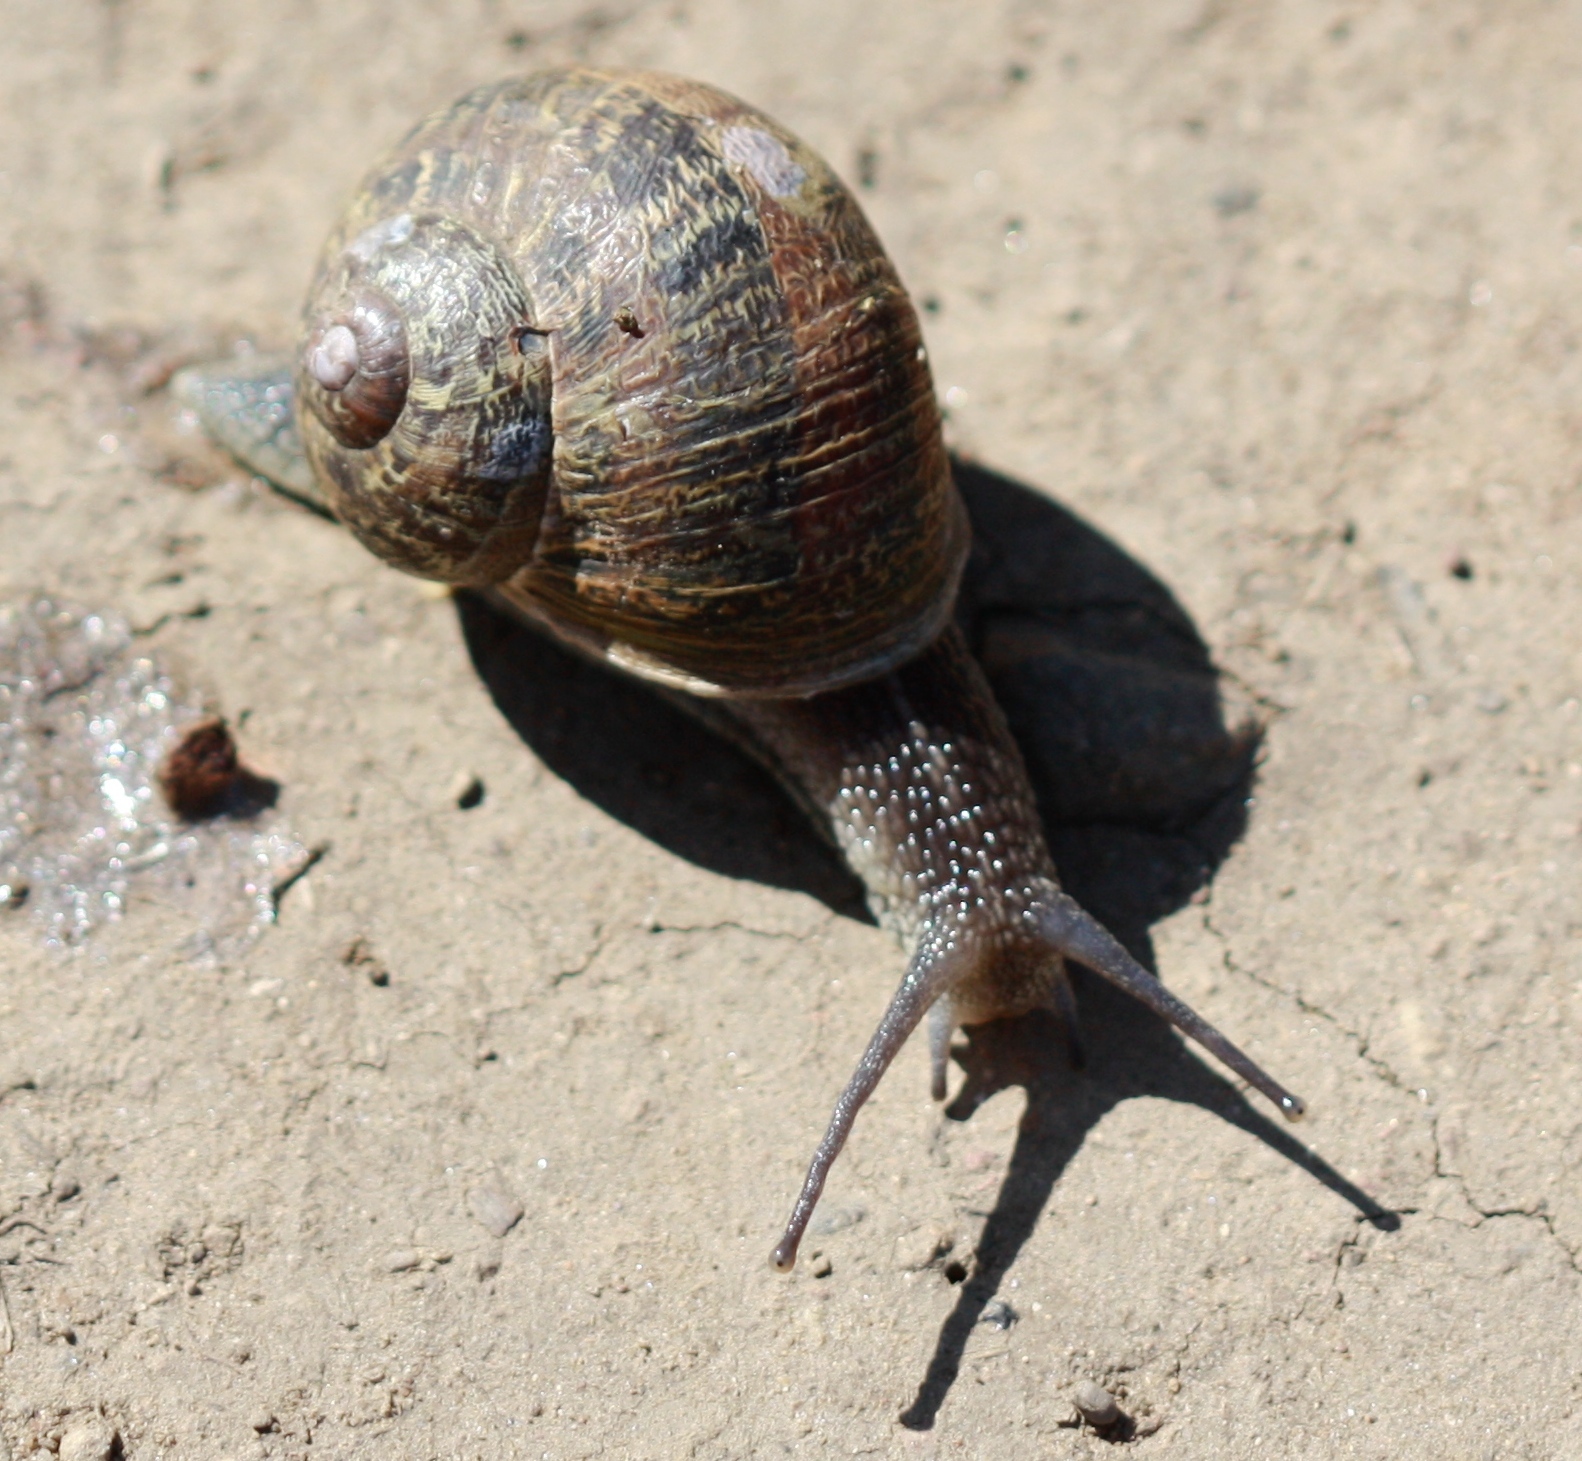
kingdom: Animalia
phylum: Mollusca
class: Gastropoda
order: Stylommatophora
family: Helicidae
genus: Cornu
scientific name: Cornu aspersum
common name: Brown garden snail
